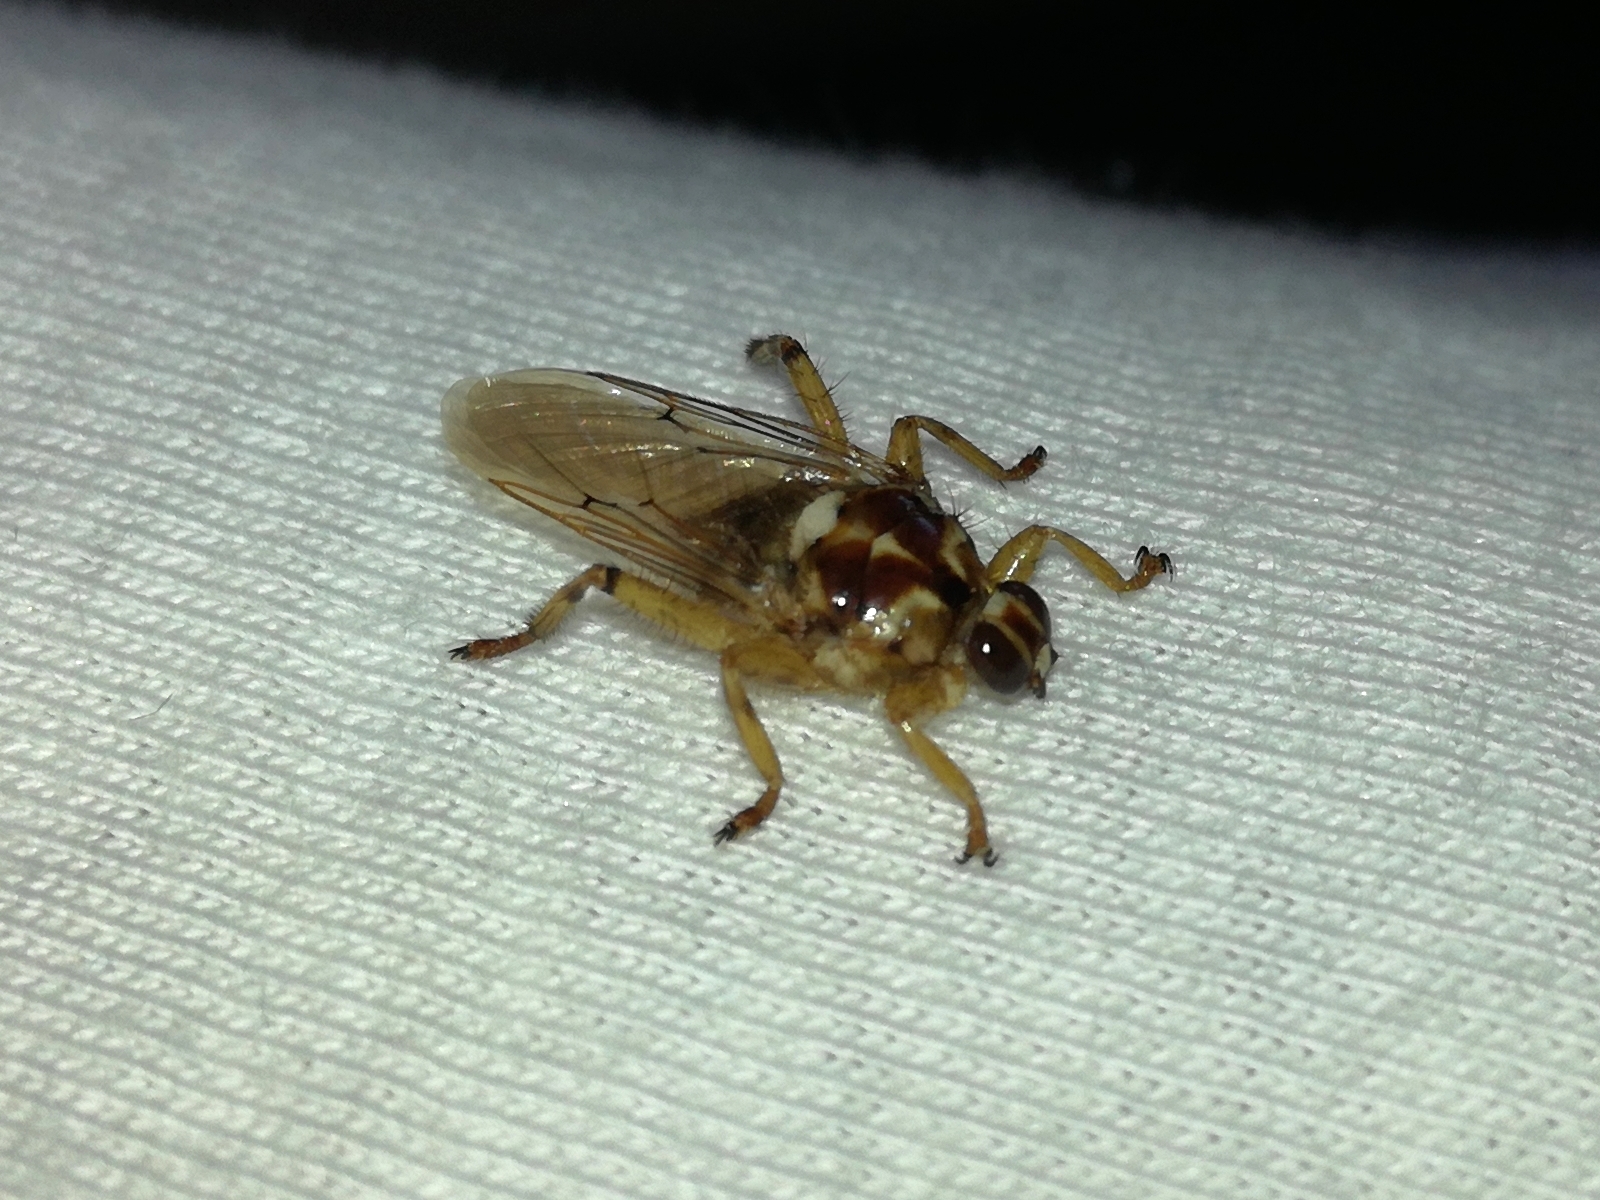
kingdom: Animalia
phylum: Arthropoda
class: Insecta
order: Diptera
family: Hippoboscidae
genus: Hippobosca
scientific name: Hippobosca equina
